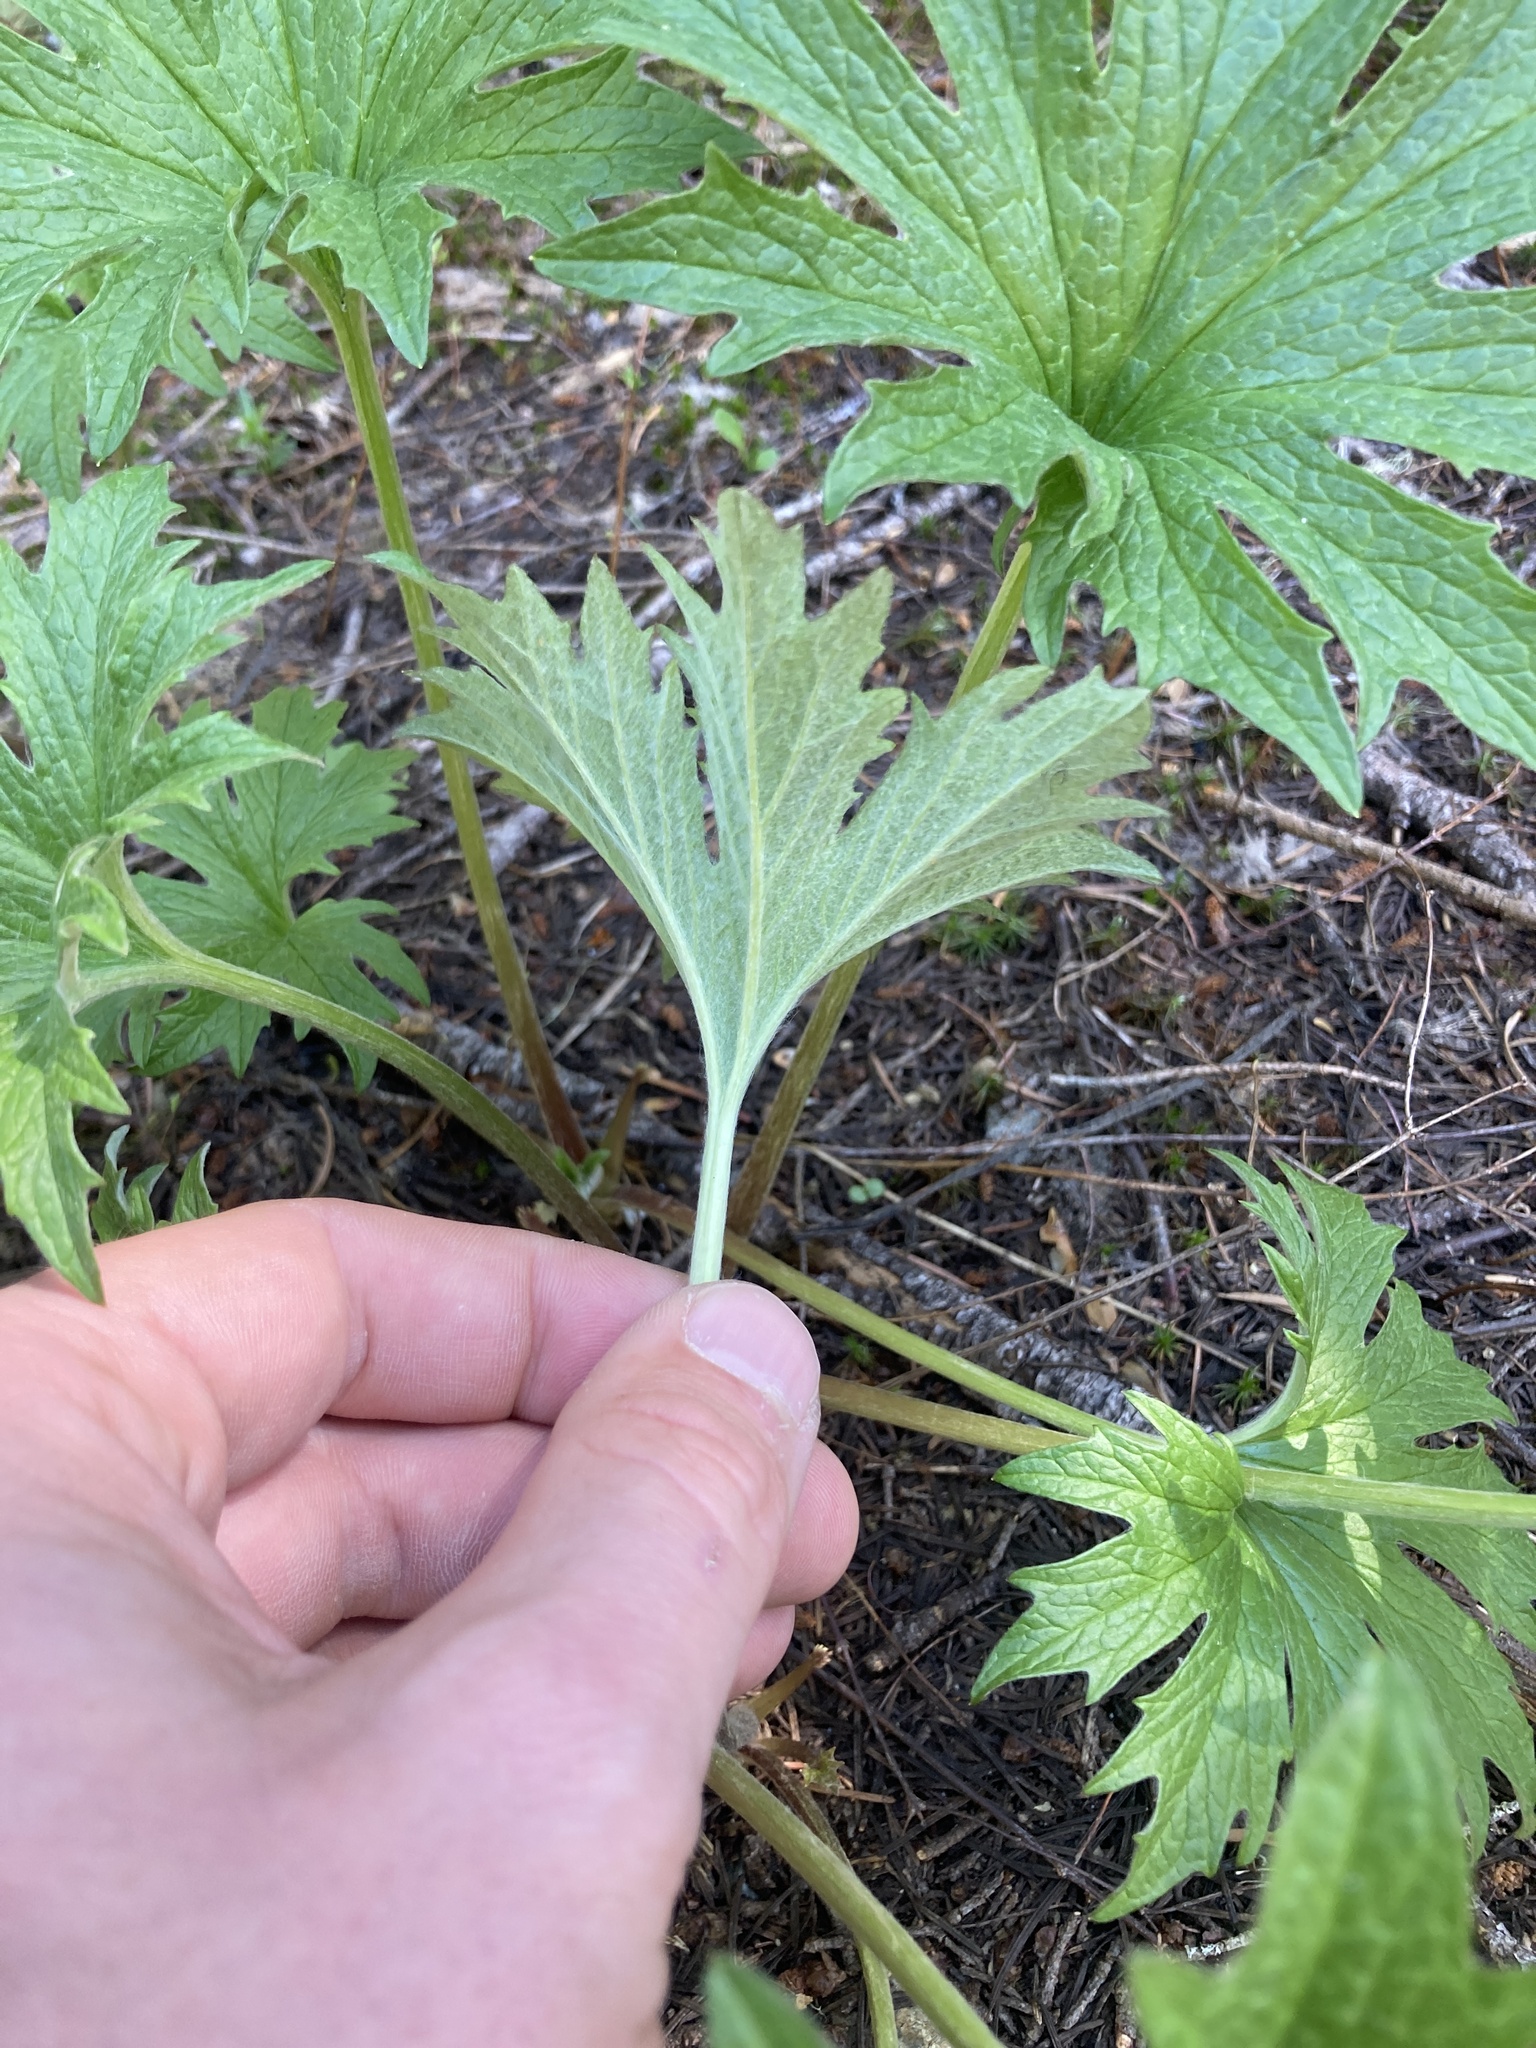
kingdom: Plantae
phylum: Tracheophyta
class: Magnoliopsida
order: Asterales
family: Asteraceae
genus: Cacaliopsis
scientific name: Cacaliopsis nardosmia
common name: Silvercrown
